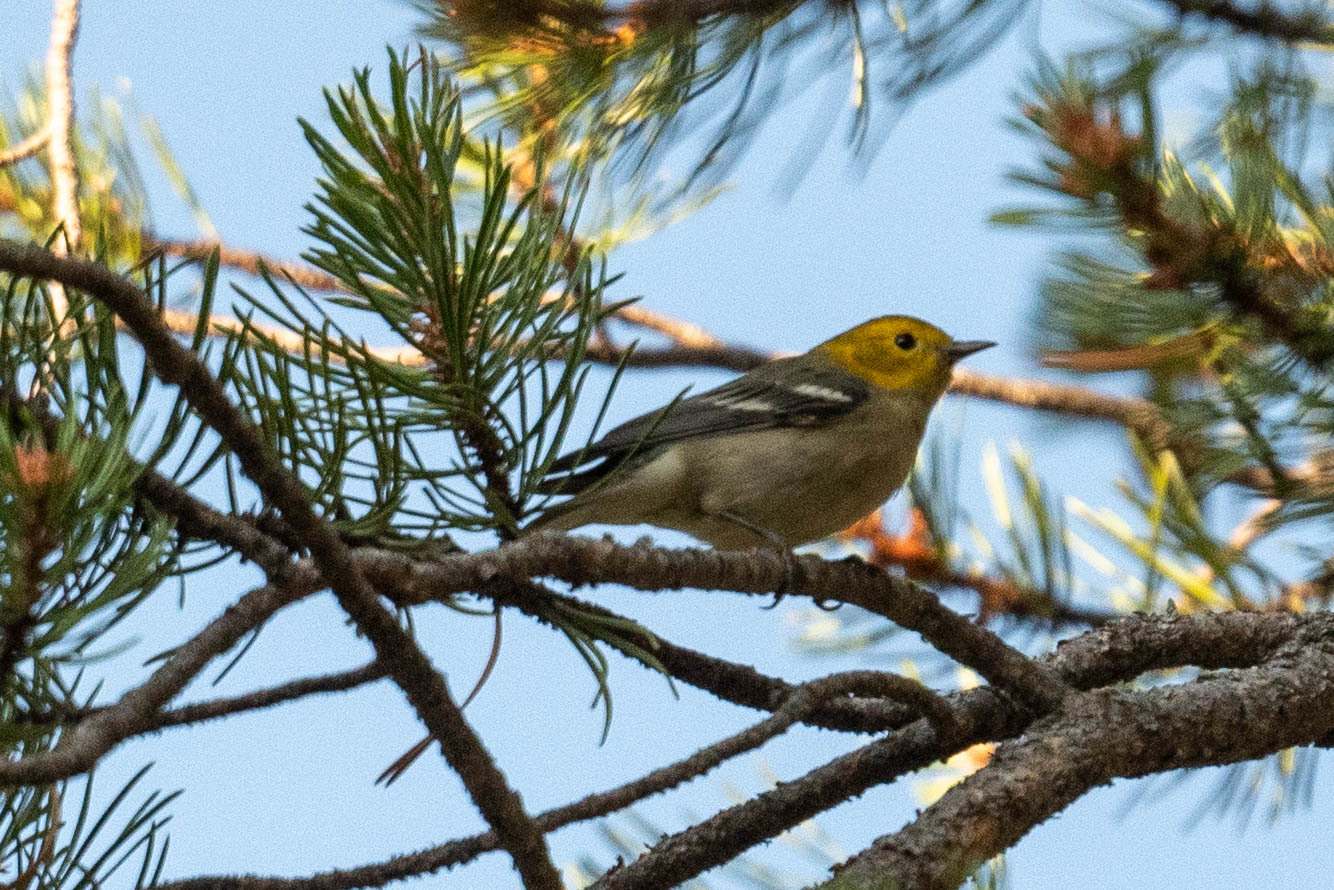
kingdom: Animalia
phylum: Chordata
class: Aves
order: Passeriformes
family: Parulidae
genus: Setophaga
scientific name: Setophaga occidentalis
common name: Hermit warbler
